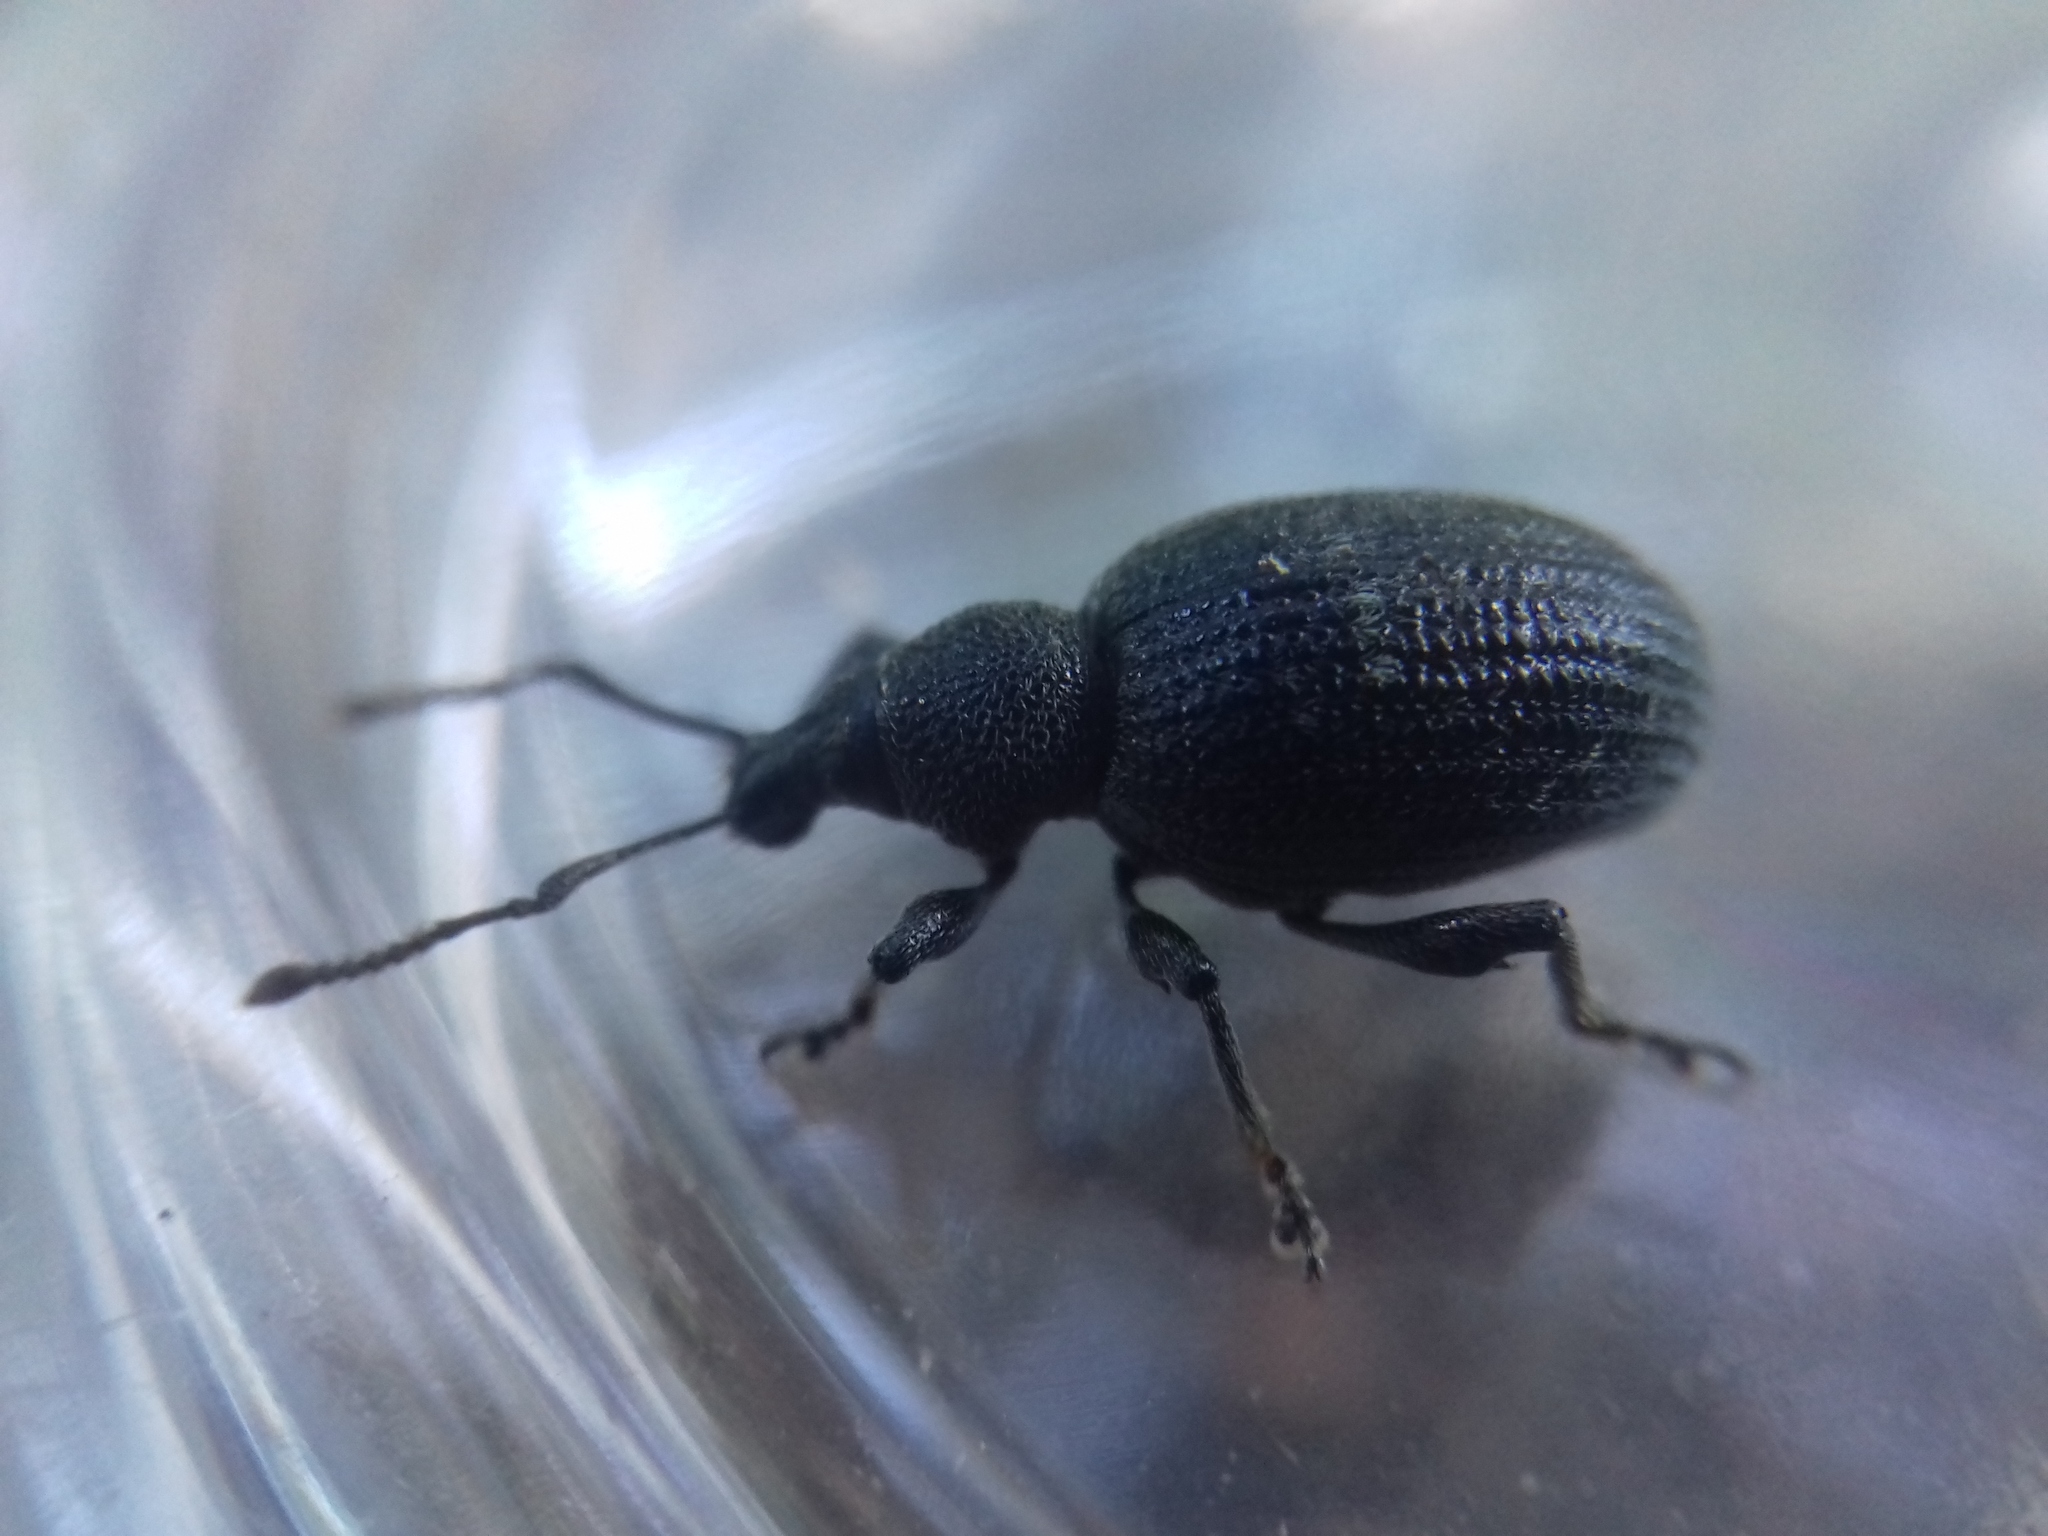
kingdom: Animalia
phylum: Arthropoda
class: Insecta
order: Coleoptera
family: Curculionidae
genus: Otiorhynchus
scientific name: Otiorhynchus tristis
